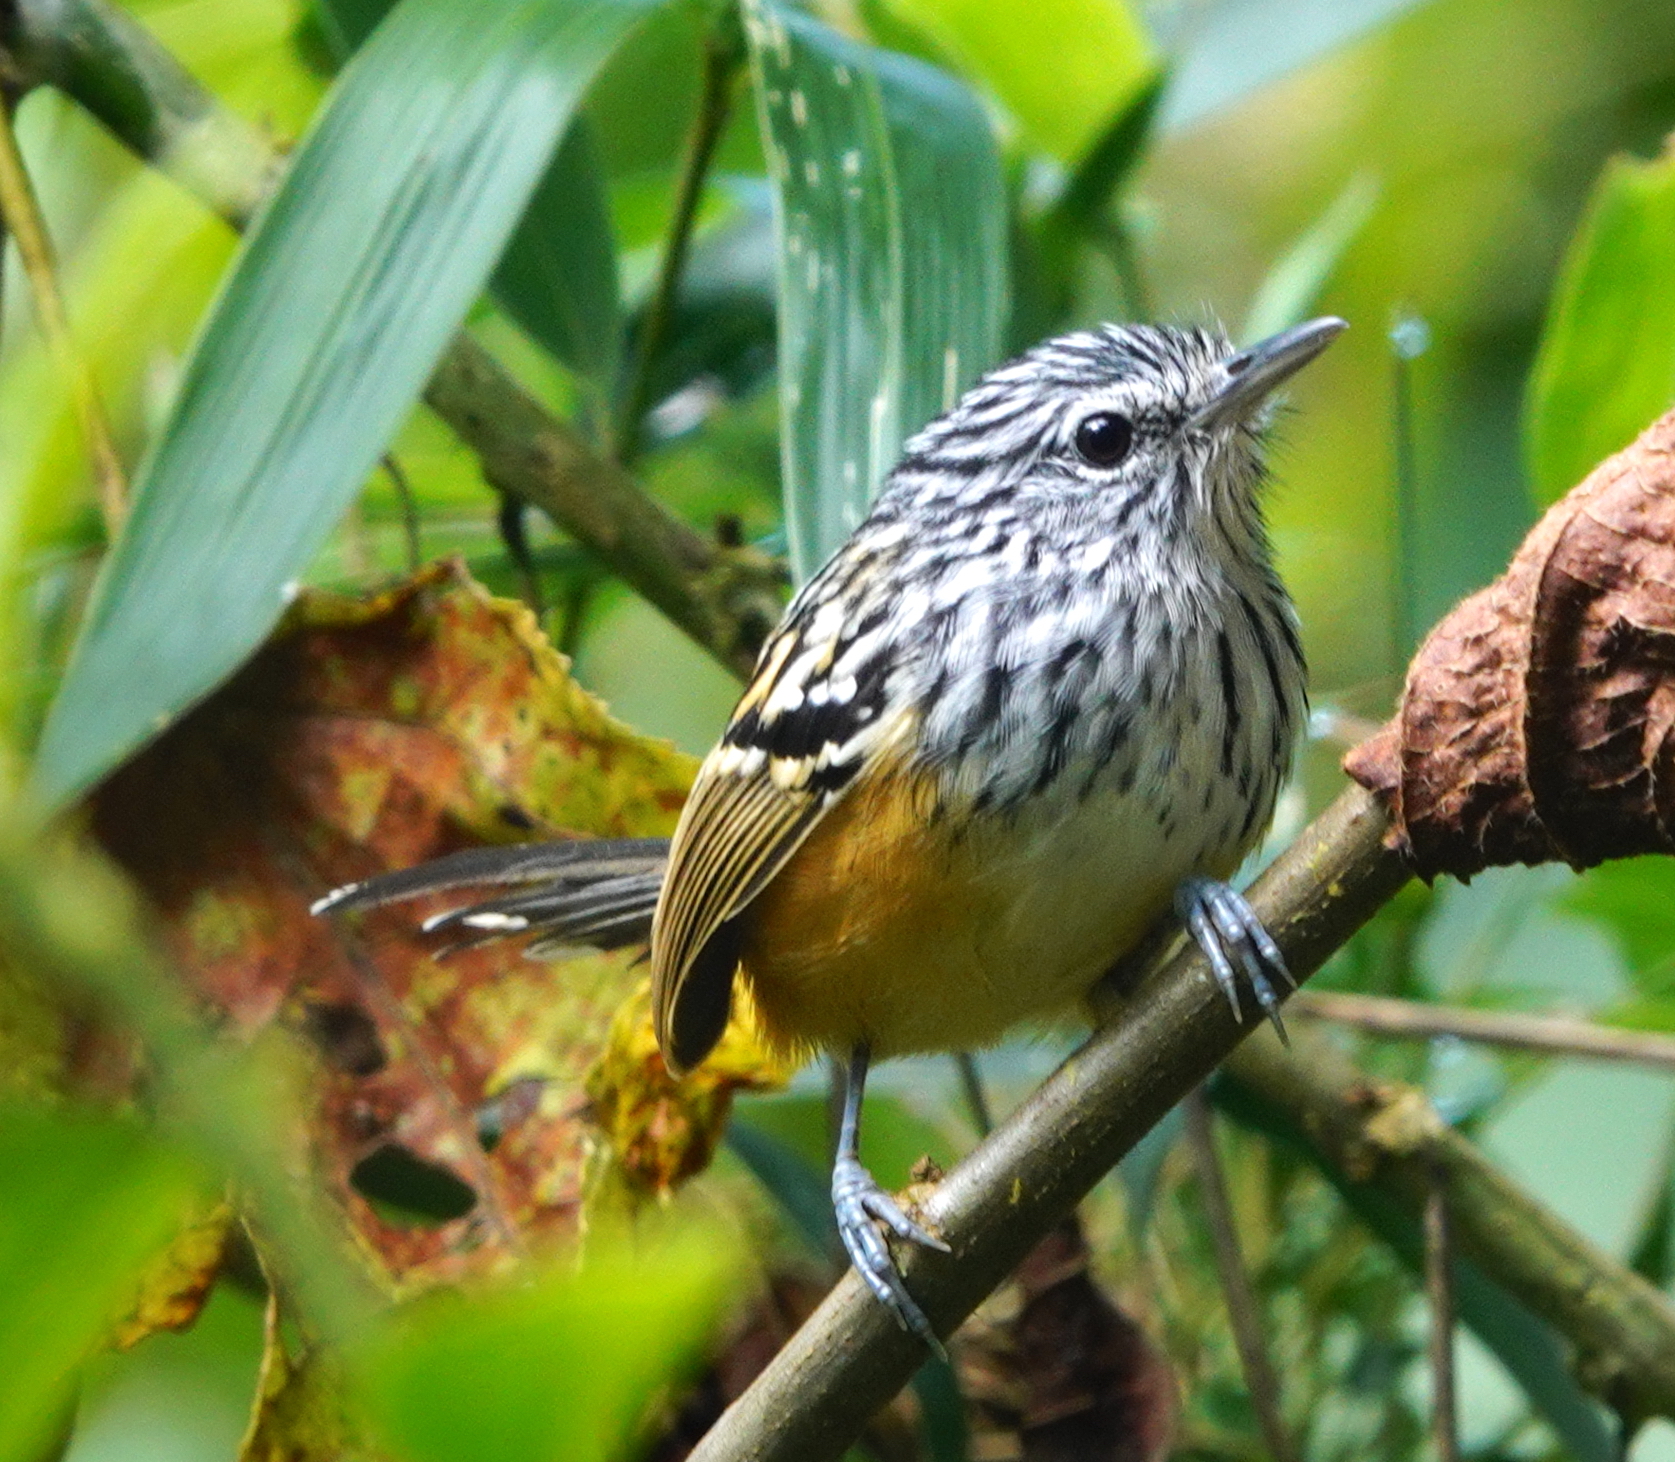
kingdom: Animalia
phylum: Chordata
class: Aves
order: Passeriformes
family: Thamnophilidae
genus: Drymophila
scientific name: Drymophila striaticeps
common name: Streak-headed antbird
